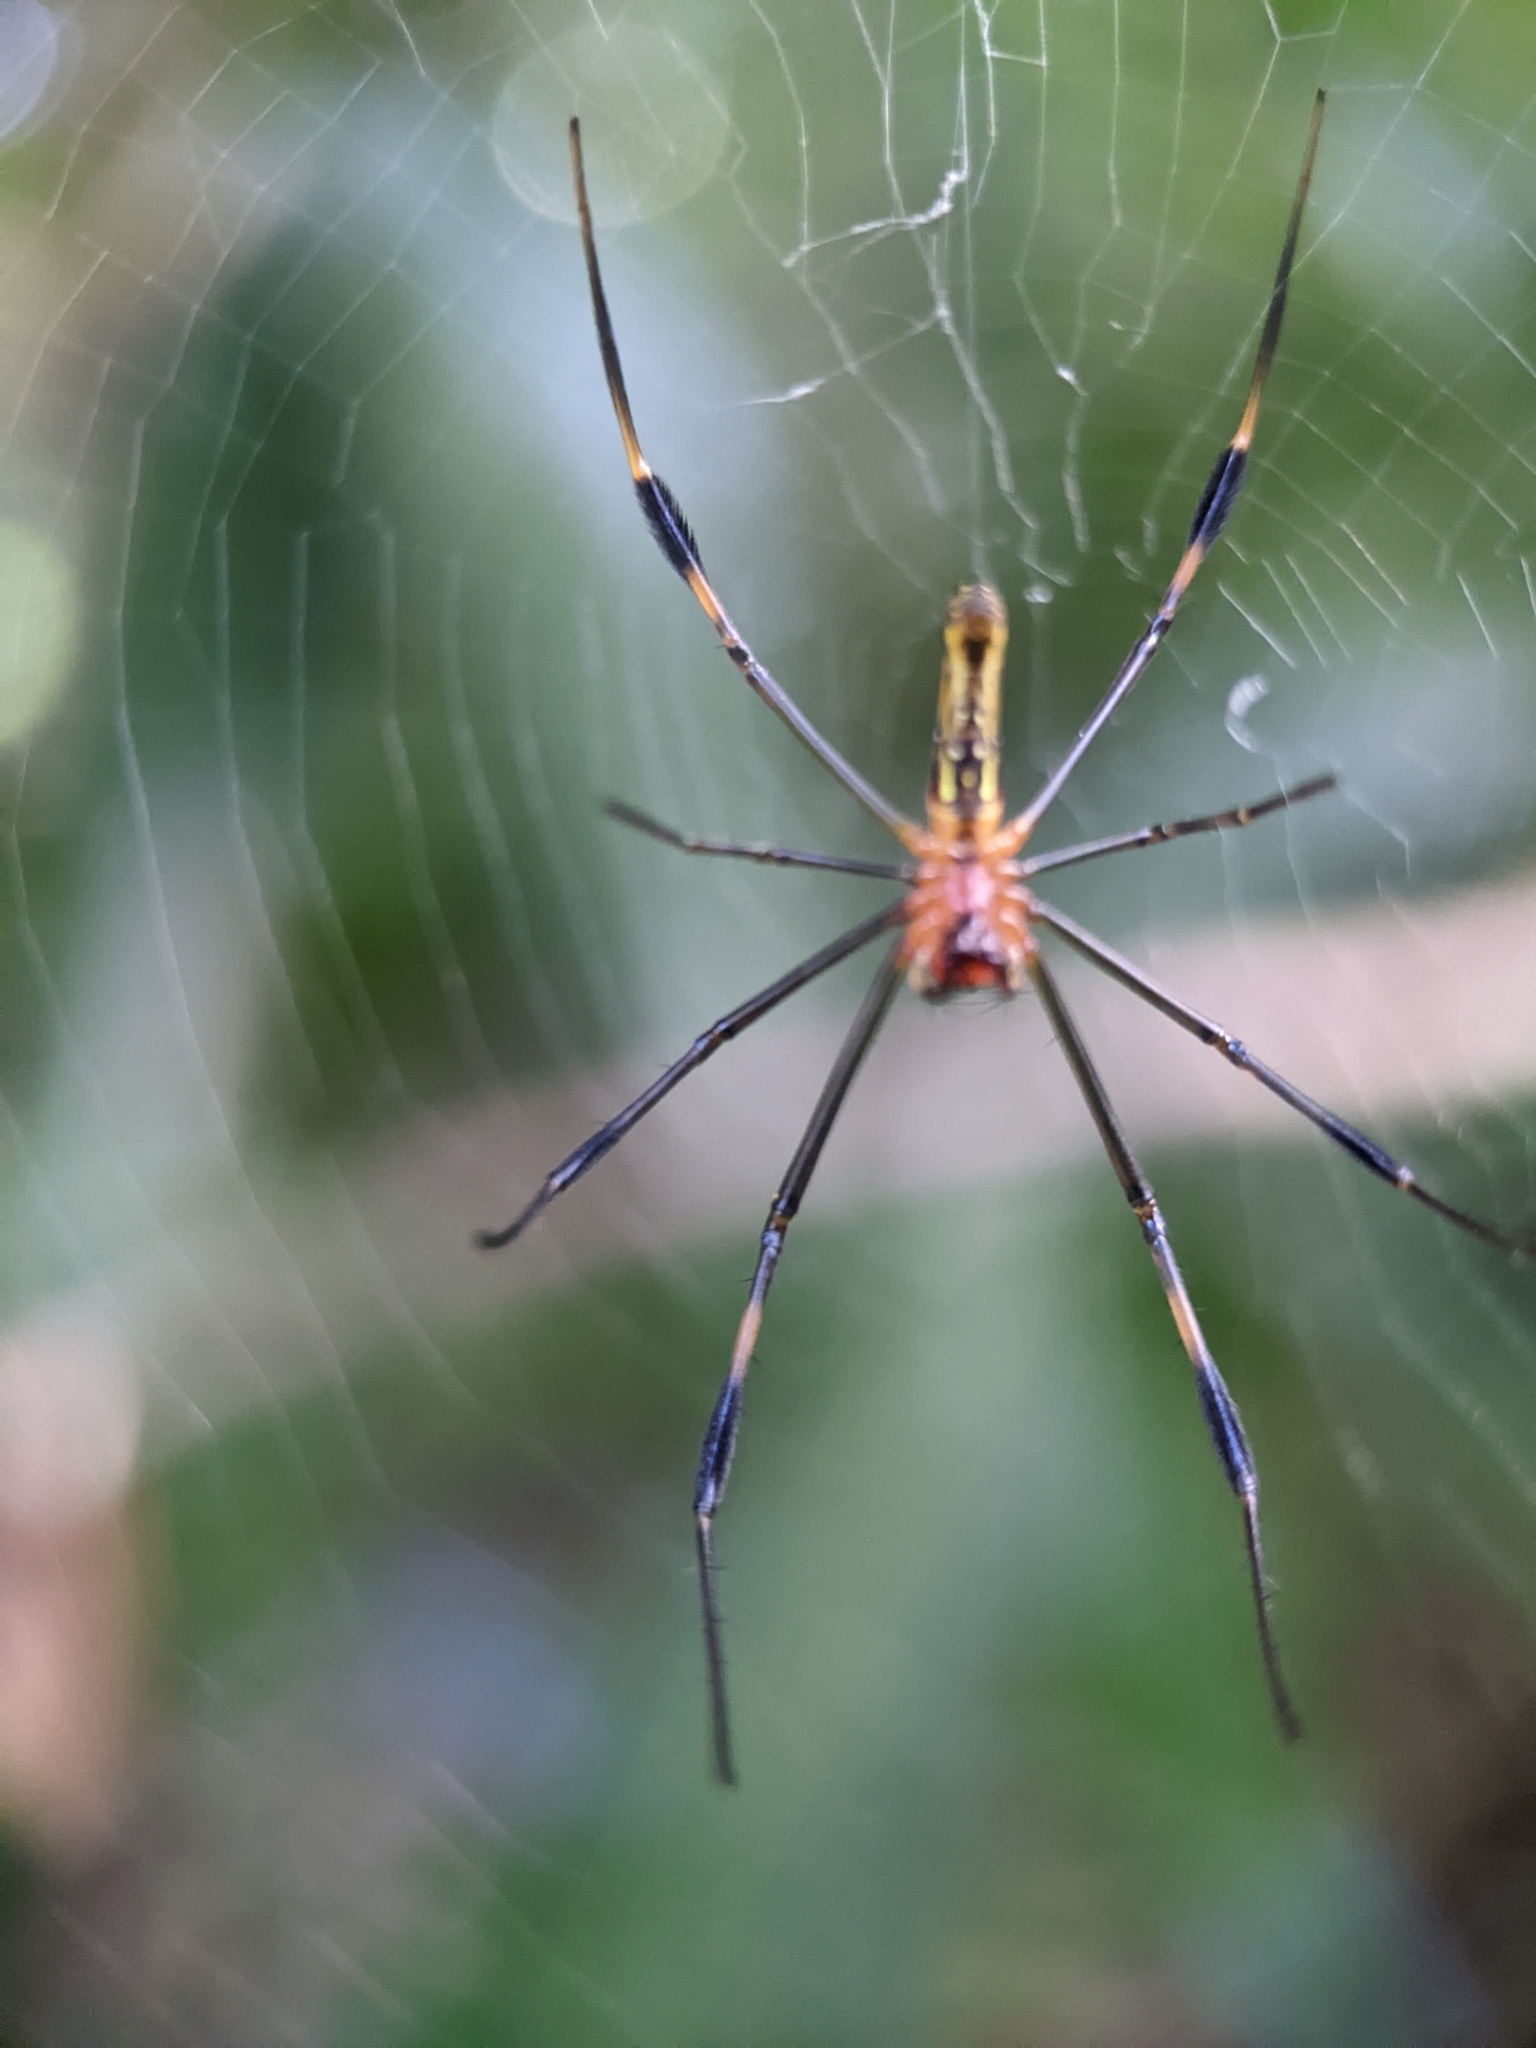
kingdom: Animalia
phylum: Arthropoda
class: Arachnida
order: Araneae
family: Araneidae
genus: Nephila
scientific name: Nephila pilipes
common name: Giant golden orb weaver
